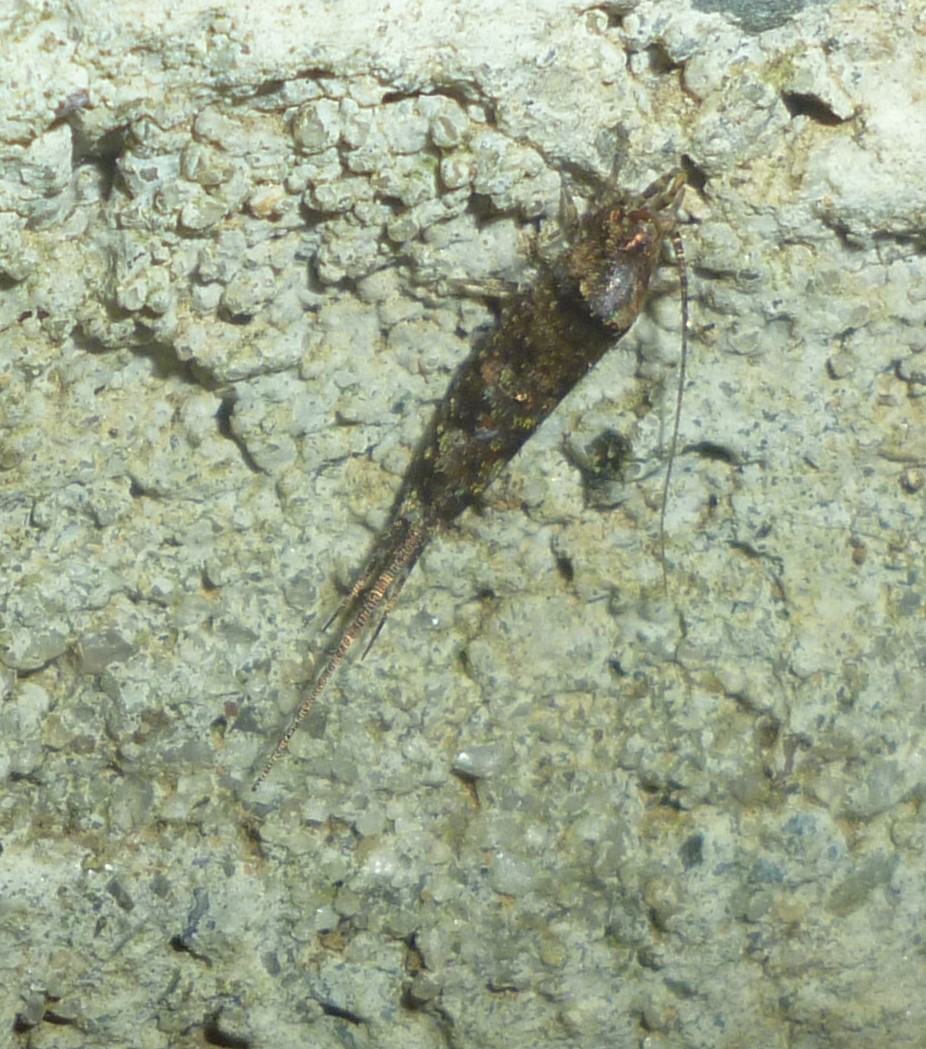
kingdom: Animalia
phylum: Arthropoda
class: Insecta
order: Archaeognatha
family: Machilidae
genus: Trigoniophthalmus
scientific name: Trigoniophthalmus alternatus
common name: Jumping bristletail
